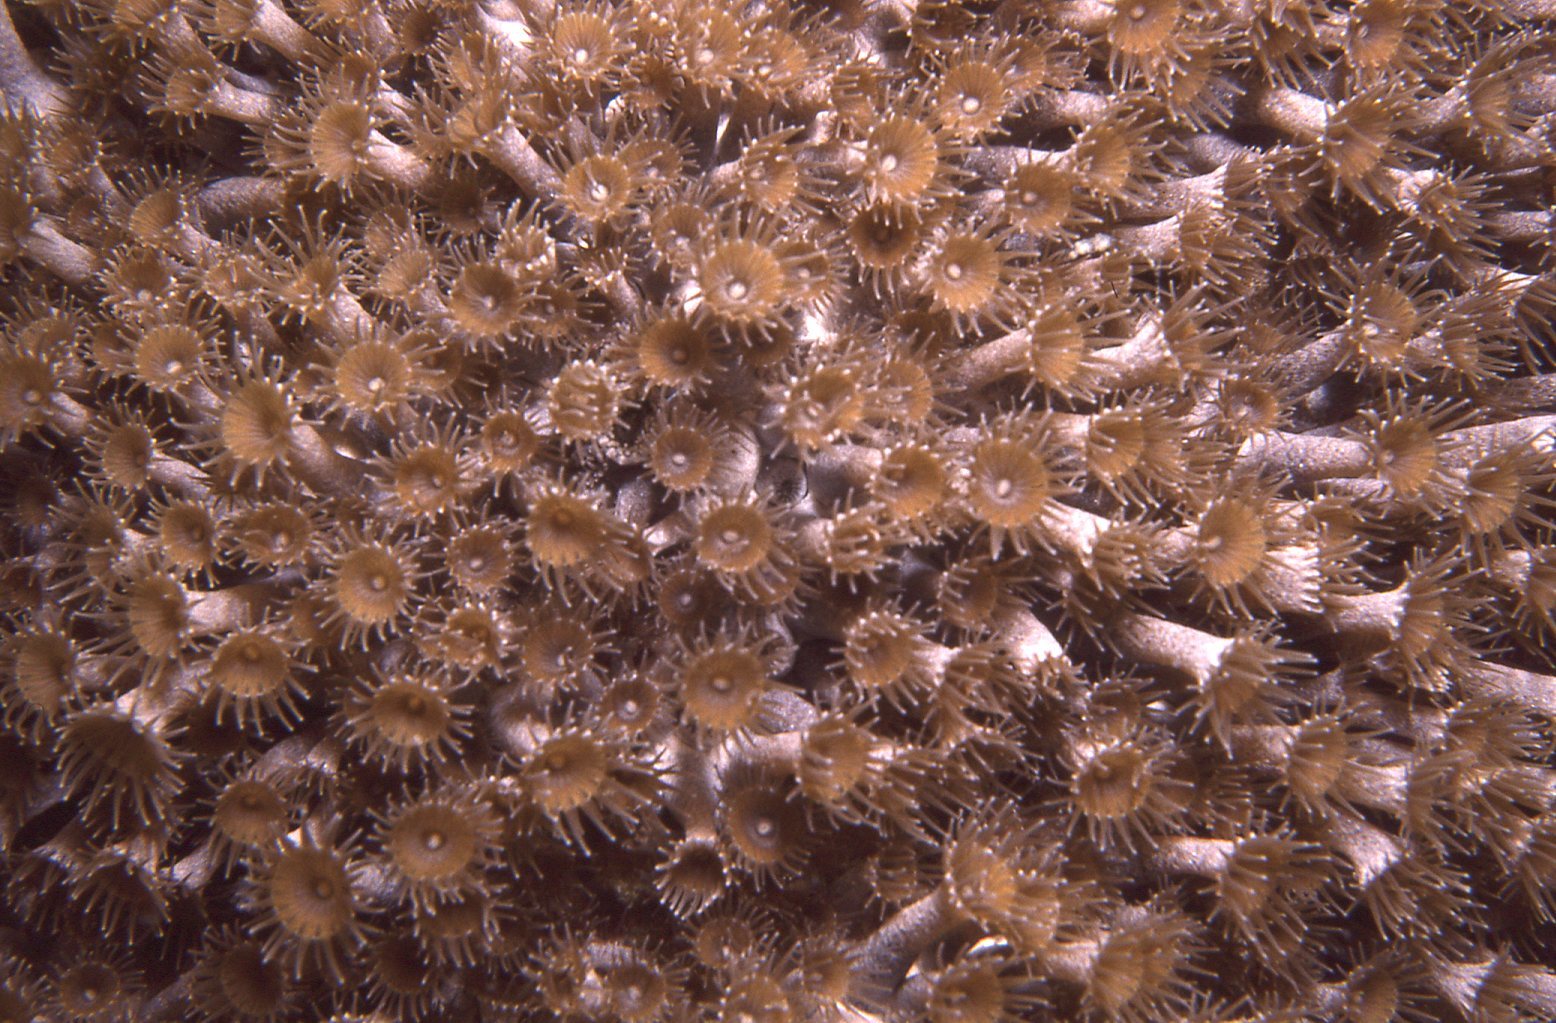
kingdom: Animalia
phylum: Cnidaria
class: Anthozoa
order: Zoantharia
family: Epizoanthidae
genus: Epizoanthus
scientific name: Epizoanthus sabulosus
